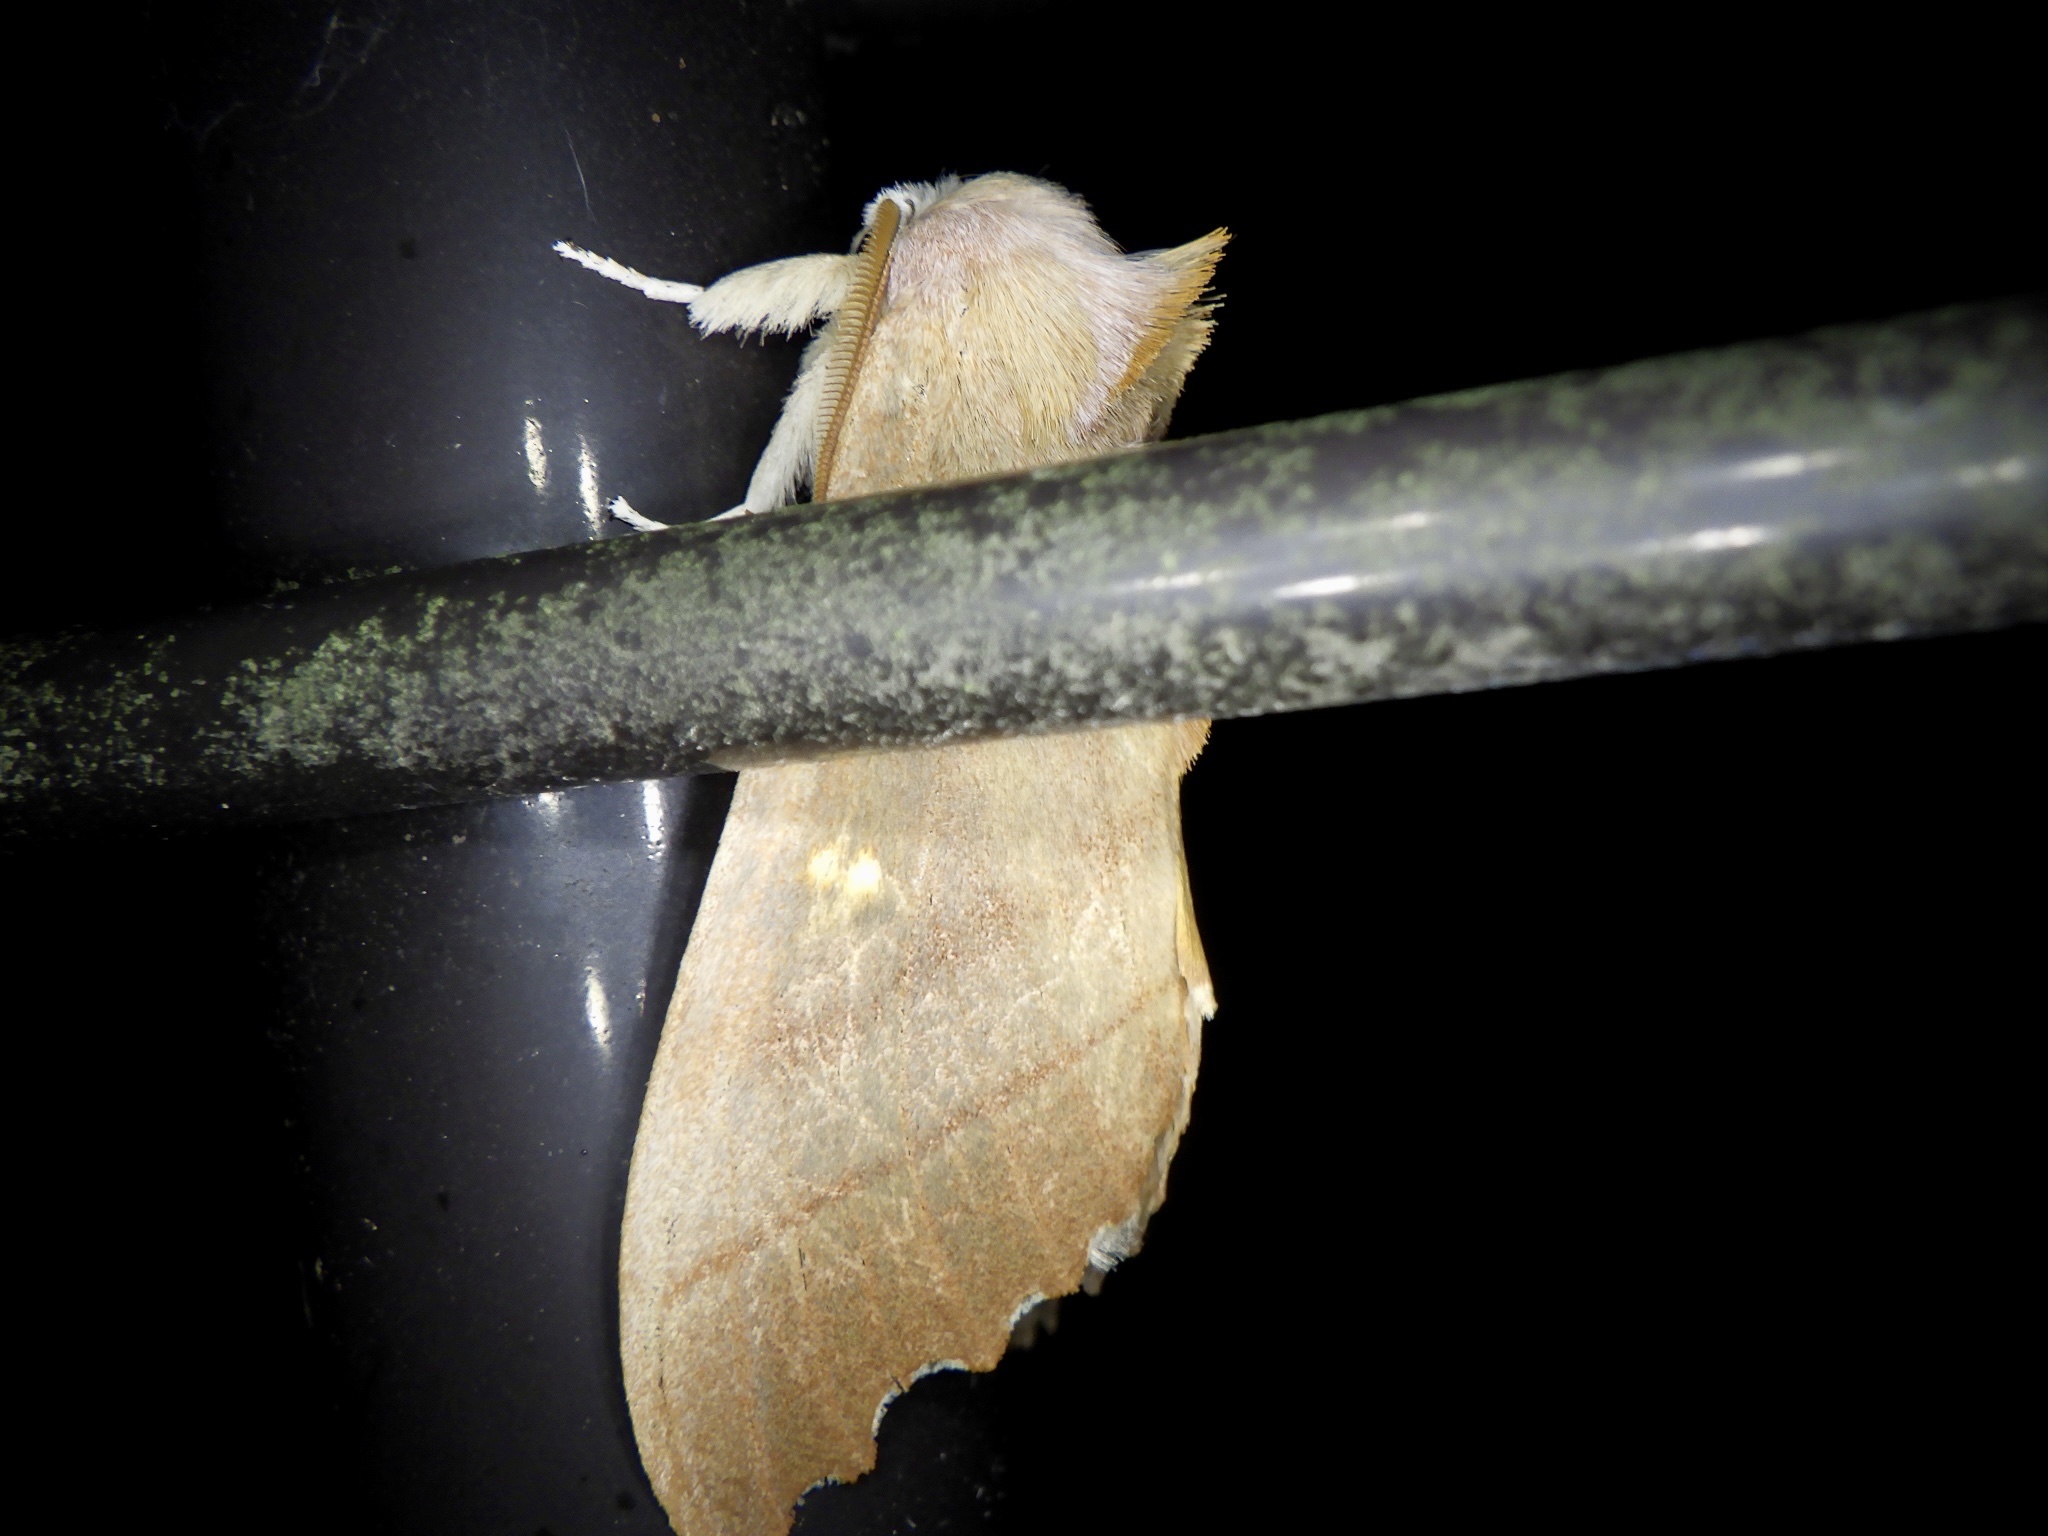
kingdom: Animalia
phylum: Arthropoda
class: Insecta
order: Lepidoptera
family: Notodontidae
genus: Euhampsonia
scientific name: Euhampsonia cristata
